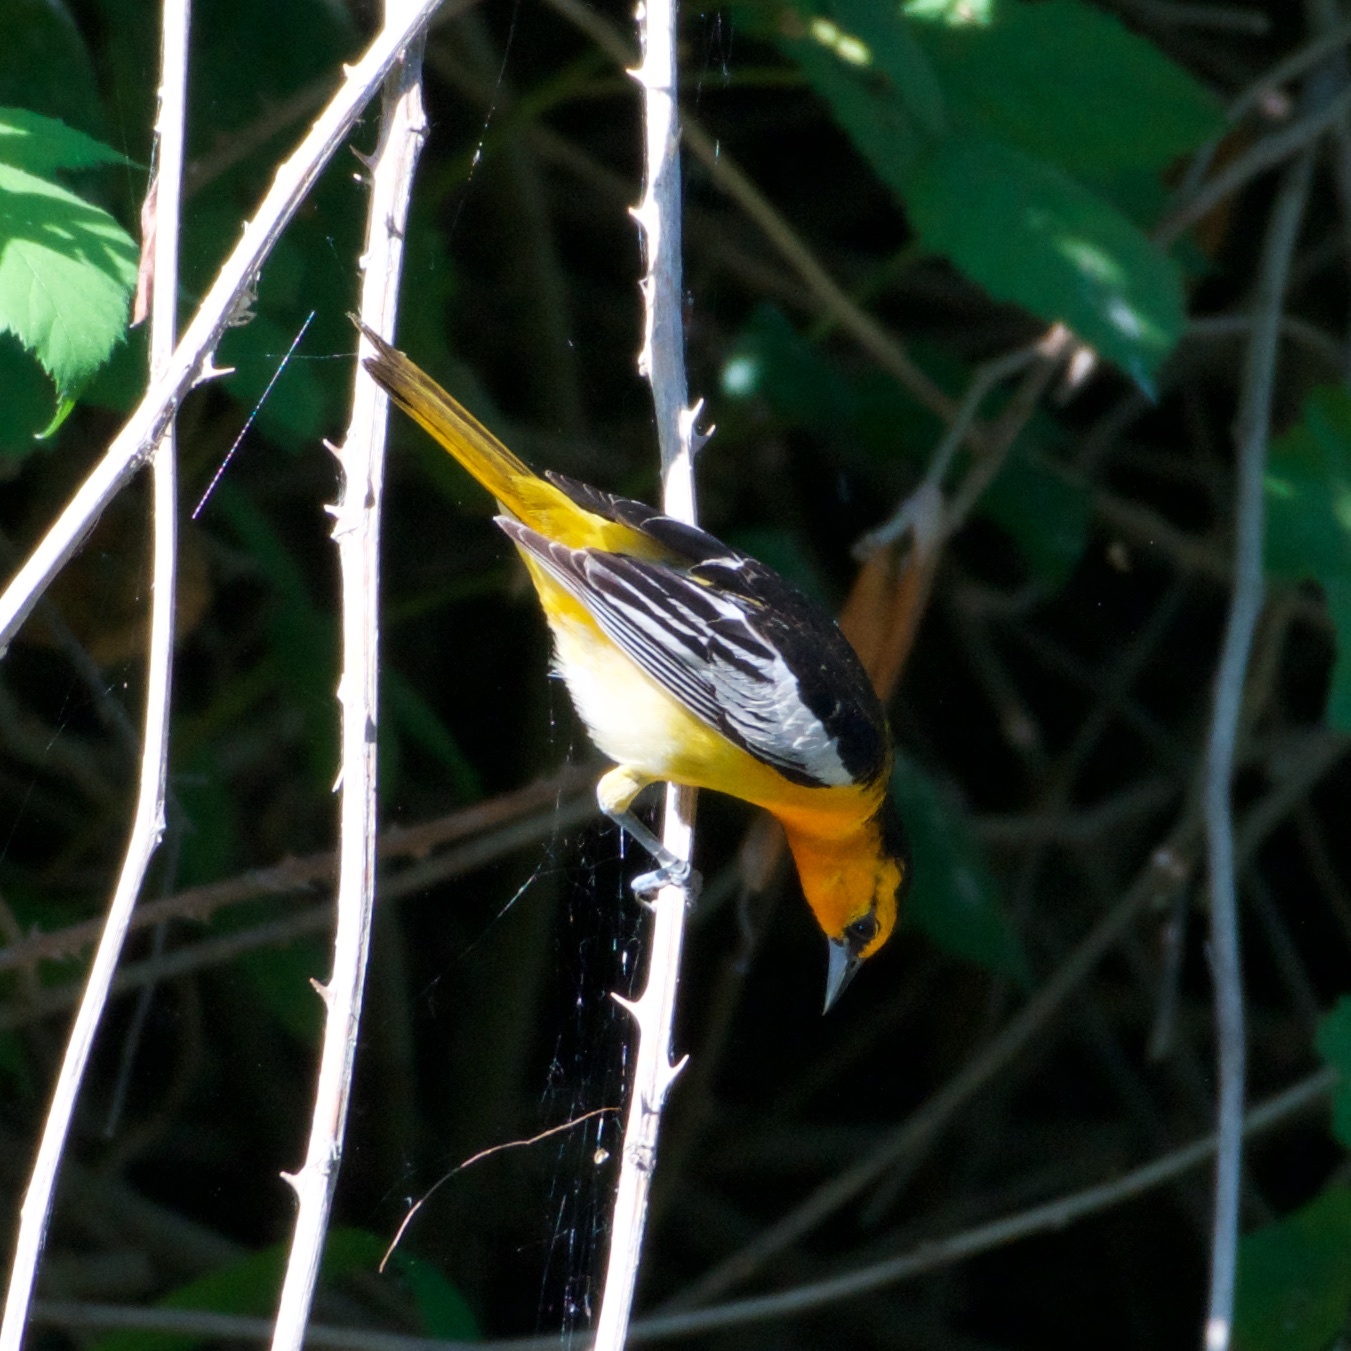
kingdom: Animalia
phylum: Chordata
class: Aves
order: Passeriformes
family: Icteridae
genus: Icterus
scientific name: Icterus bullockii
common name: Bullock's oriole
